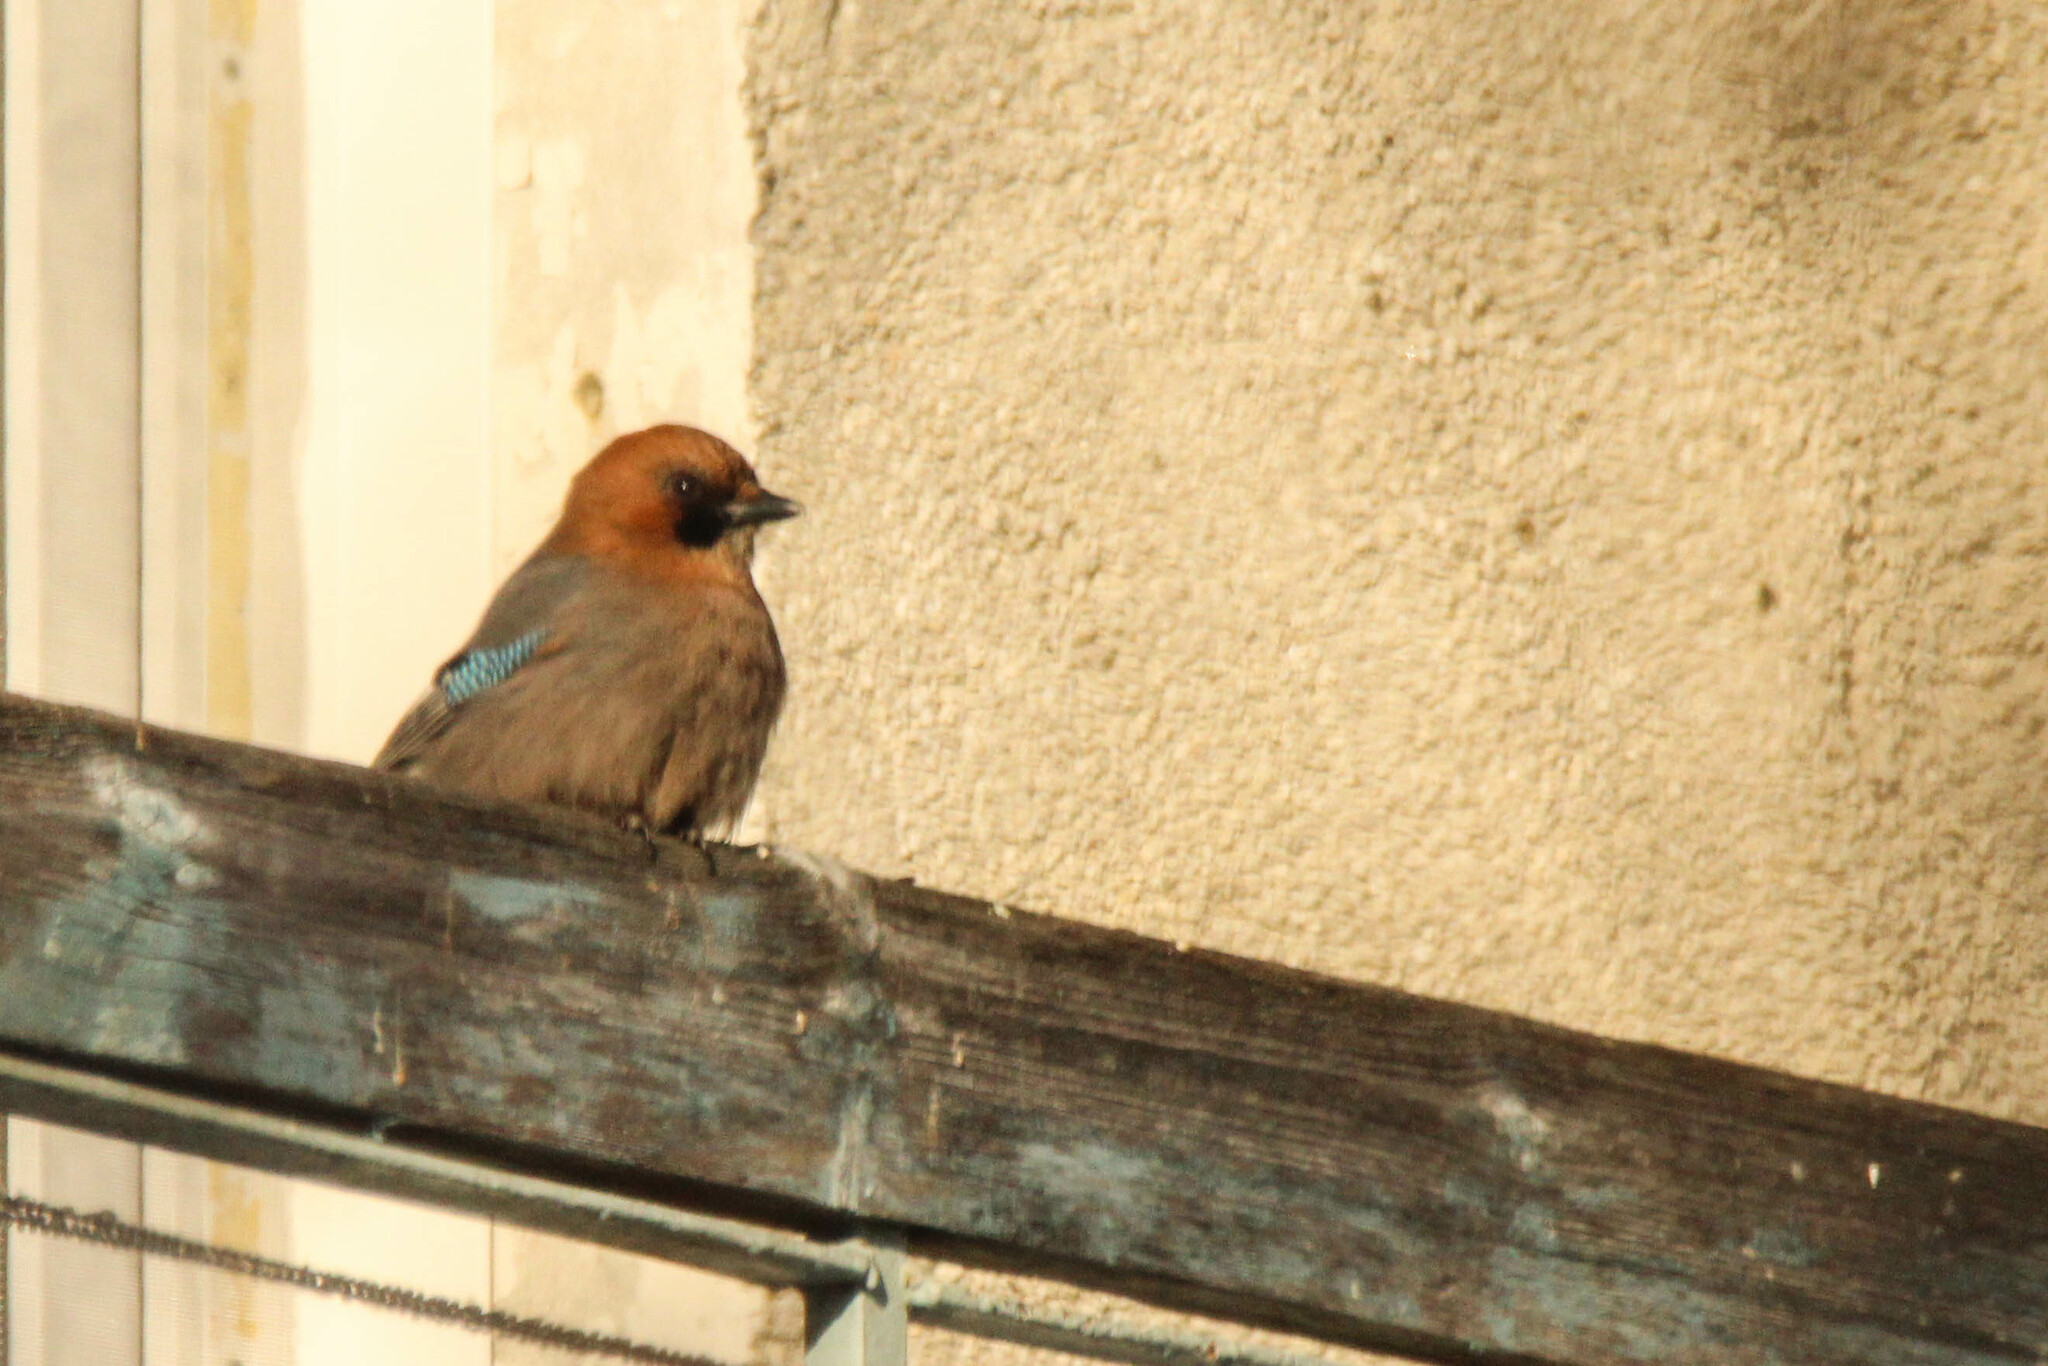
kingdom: Animalia
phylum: Chordata
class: Aves
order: Passeriformes
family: Corvidae
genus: Garrulus
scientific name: Garrulus glandarius
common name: Eurasian jay
